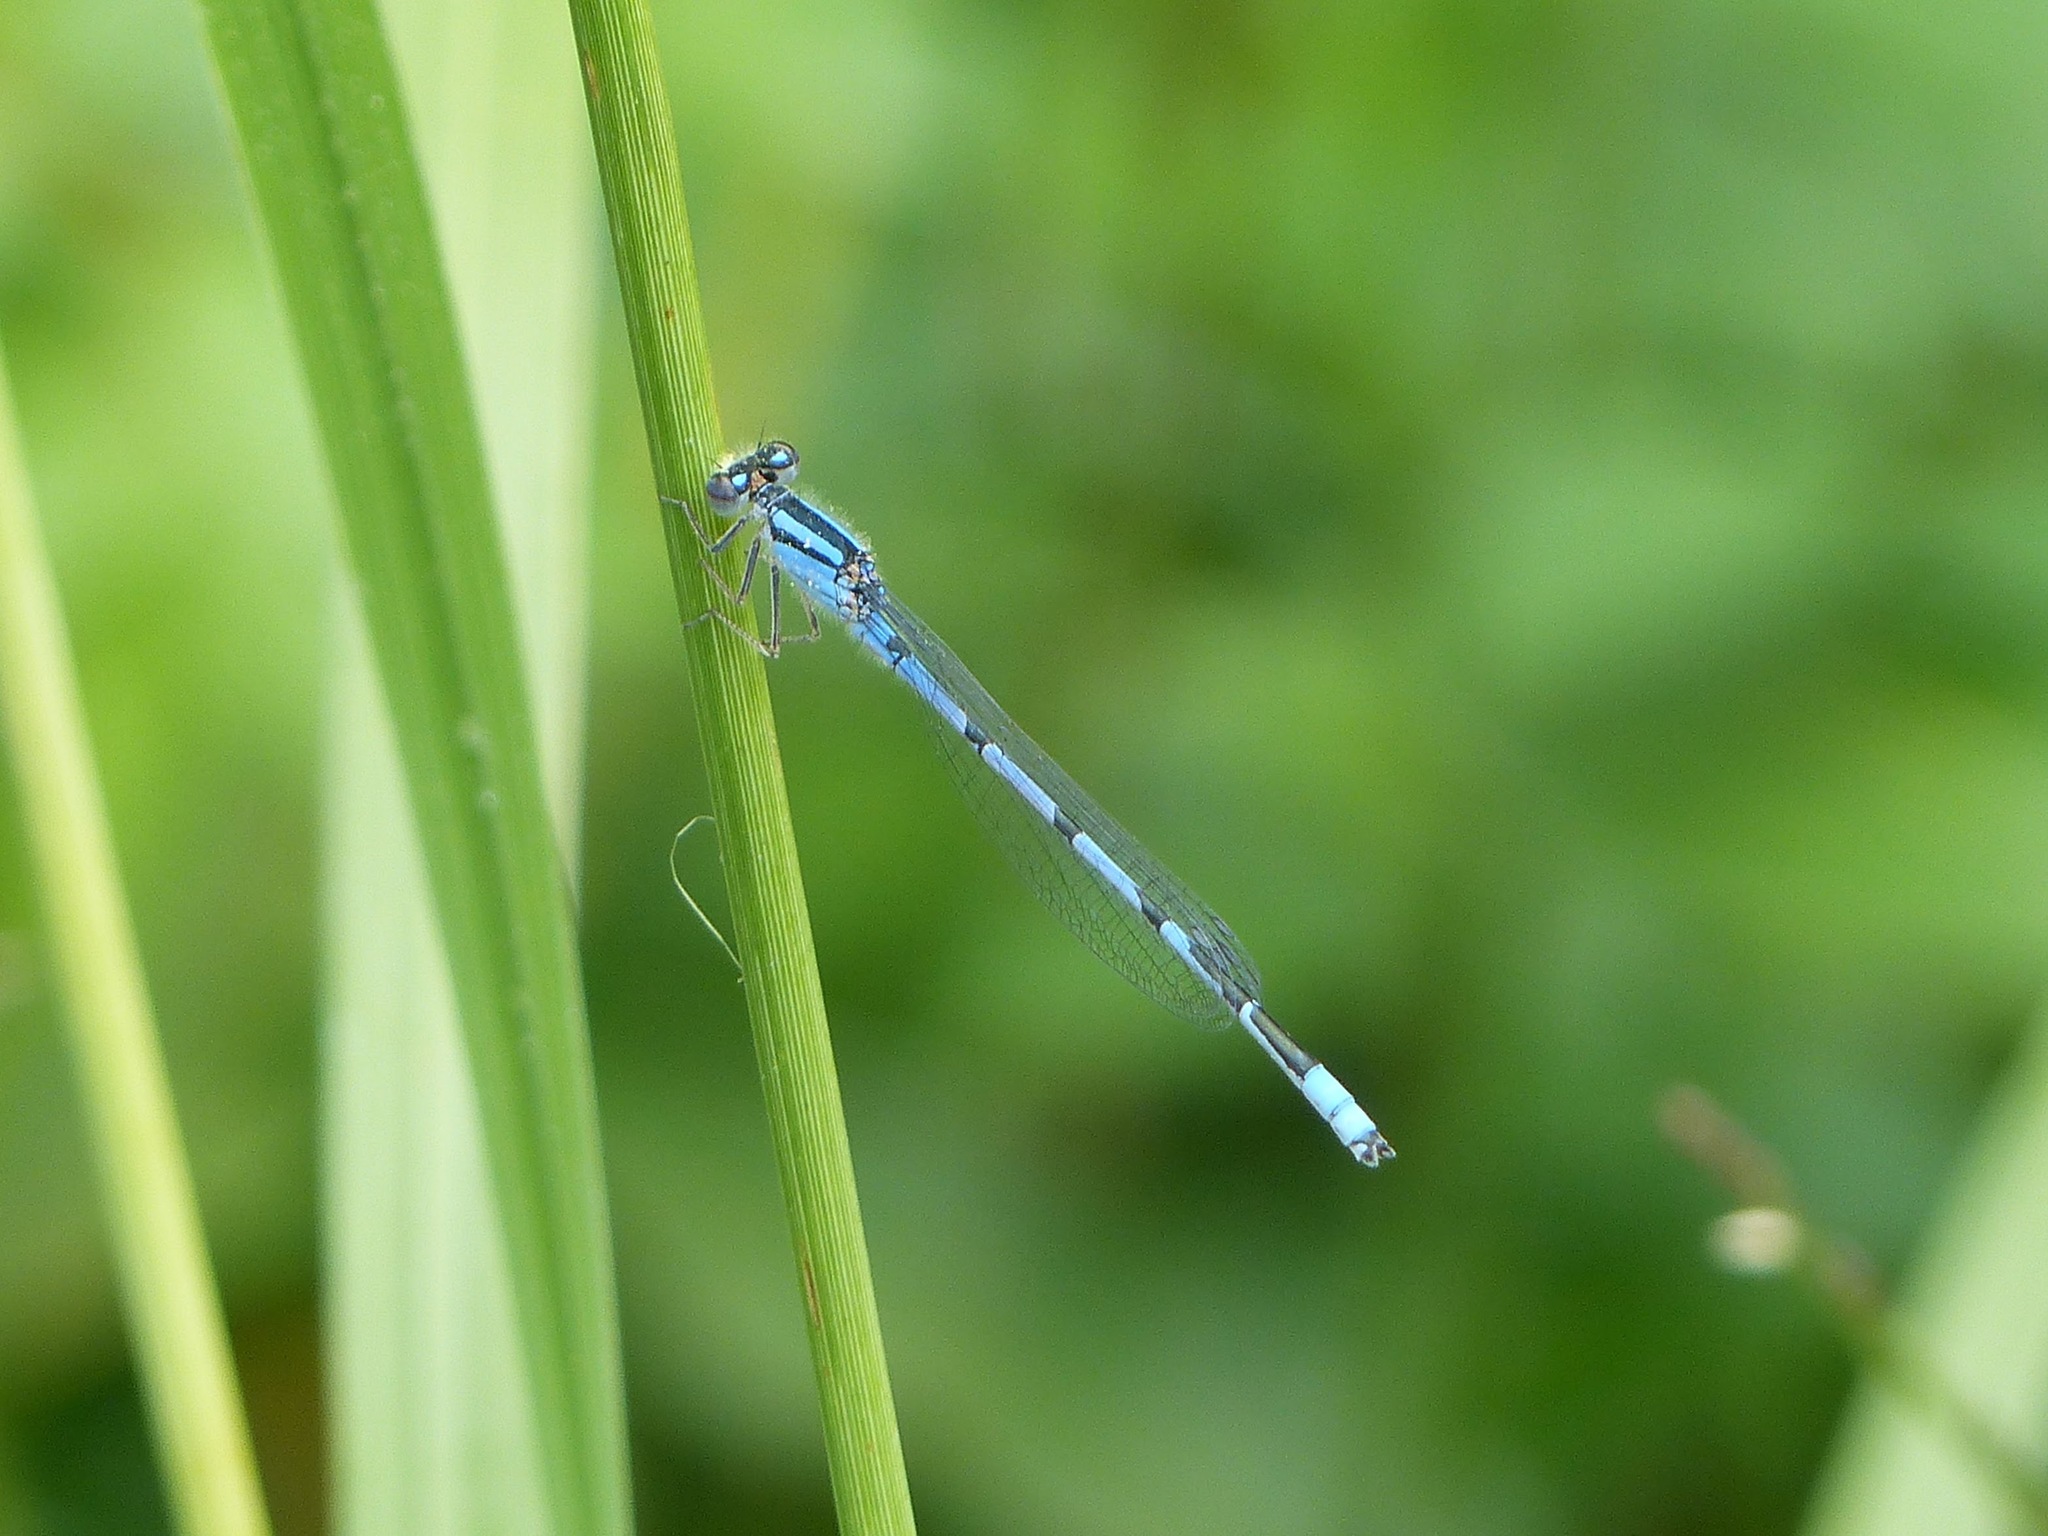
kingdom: Animalia
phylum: Arthropoda
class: Insecta
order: Odonata
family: Coenagrionidae
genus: Enallagma
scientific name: Enallagma civile
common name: Damselfly
